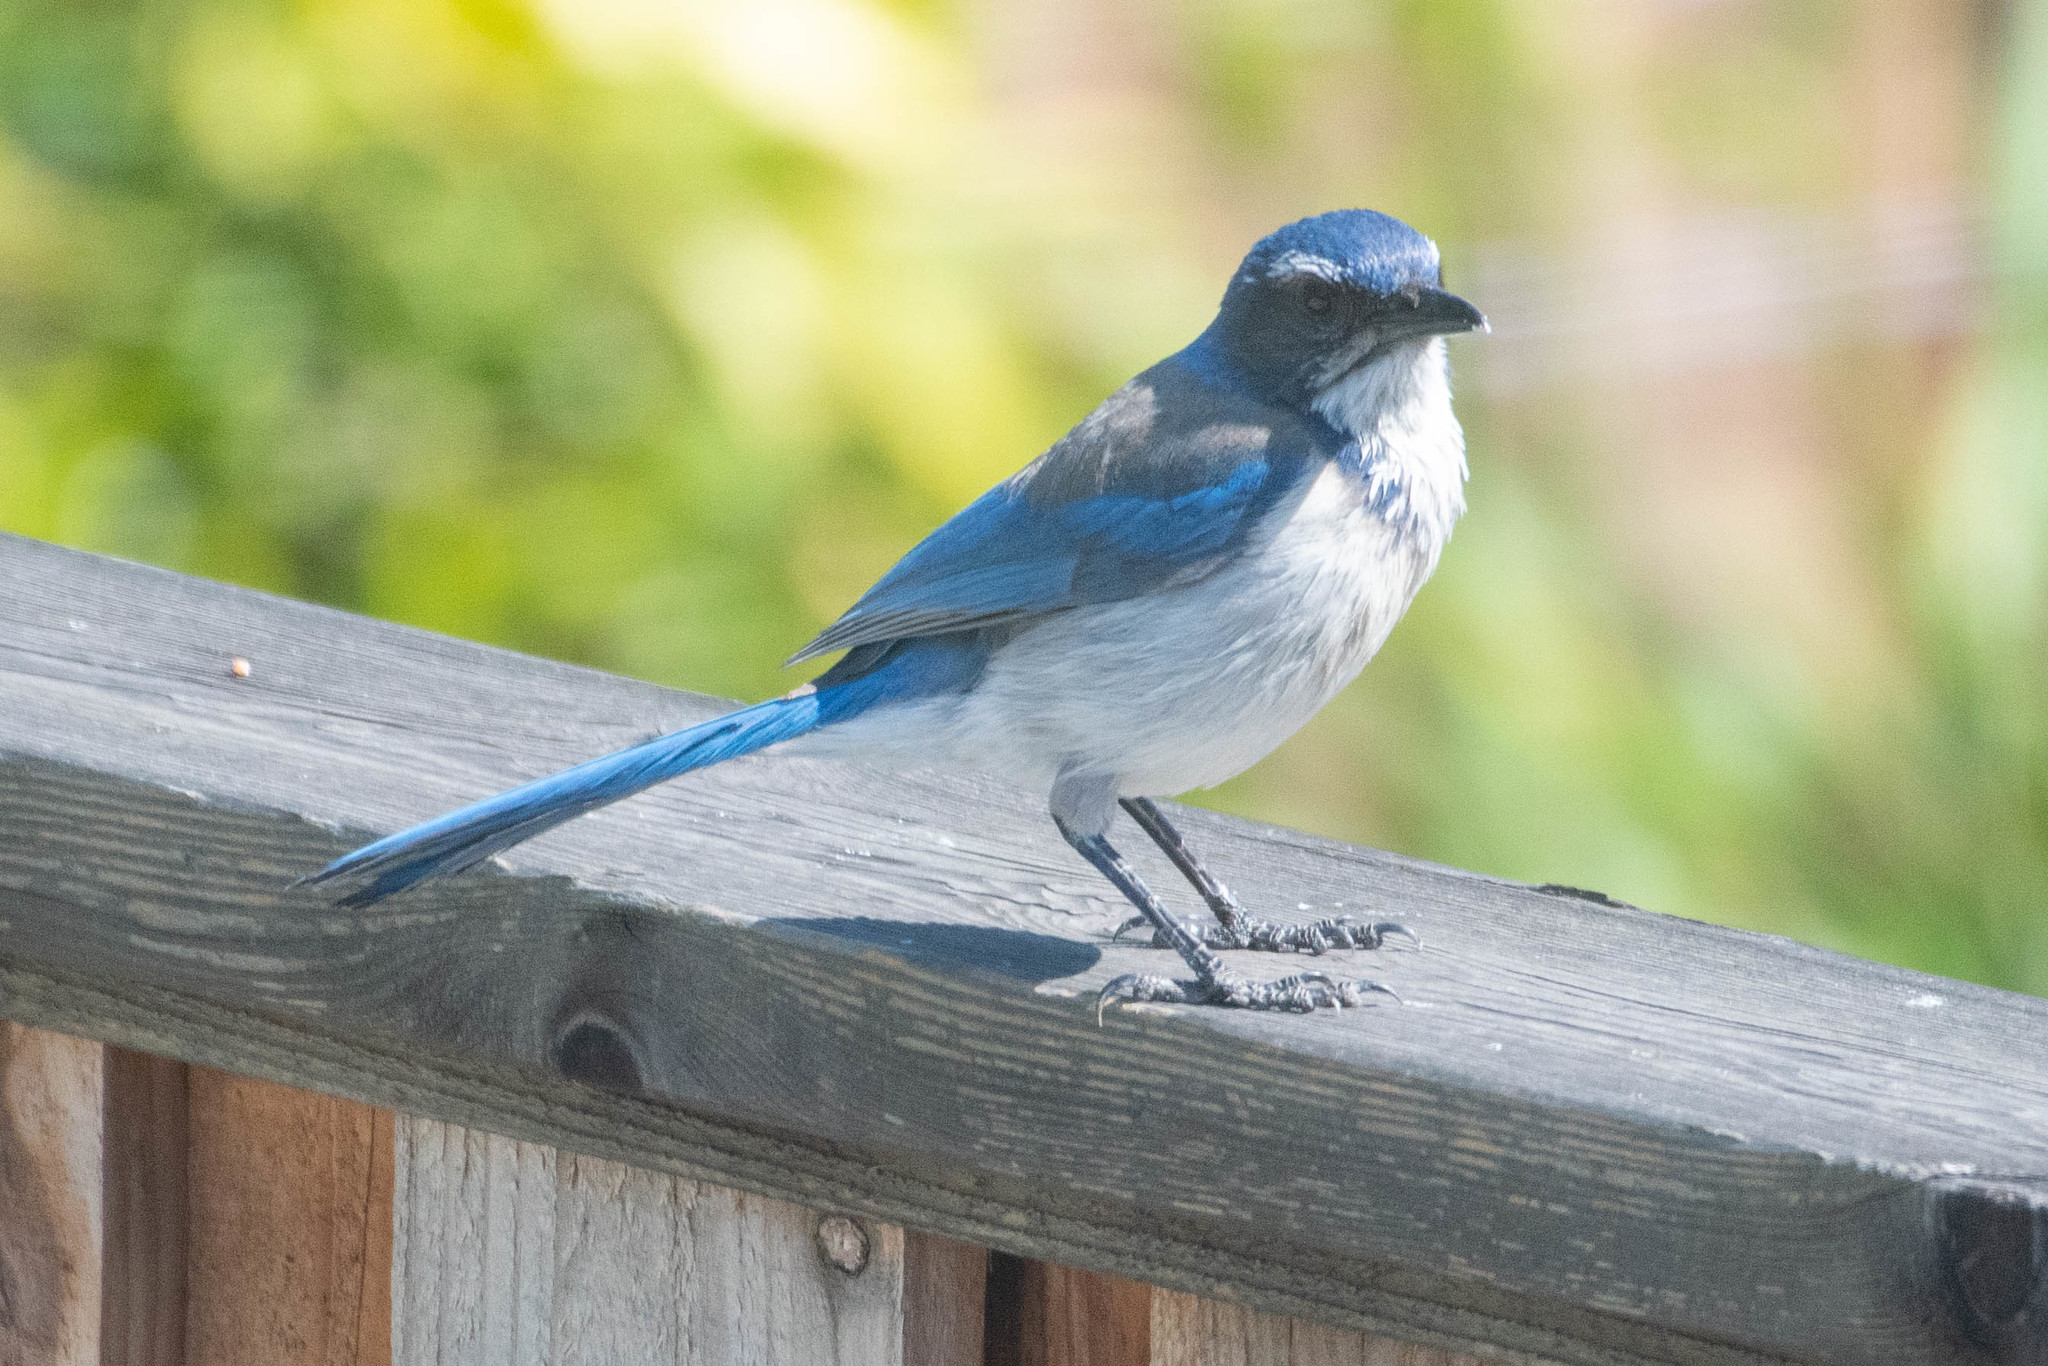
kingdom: Animalia
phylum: Chordata
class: Aves
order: Passeriformes
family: Corvidae
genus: Aphelocoma
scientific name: Aphelocoma californica
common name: California scrub-jay
